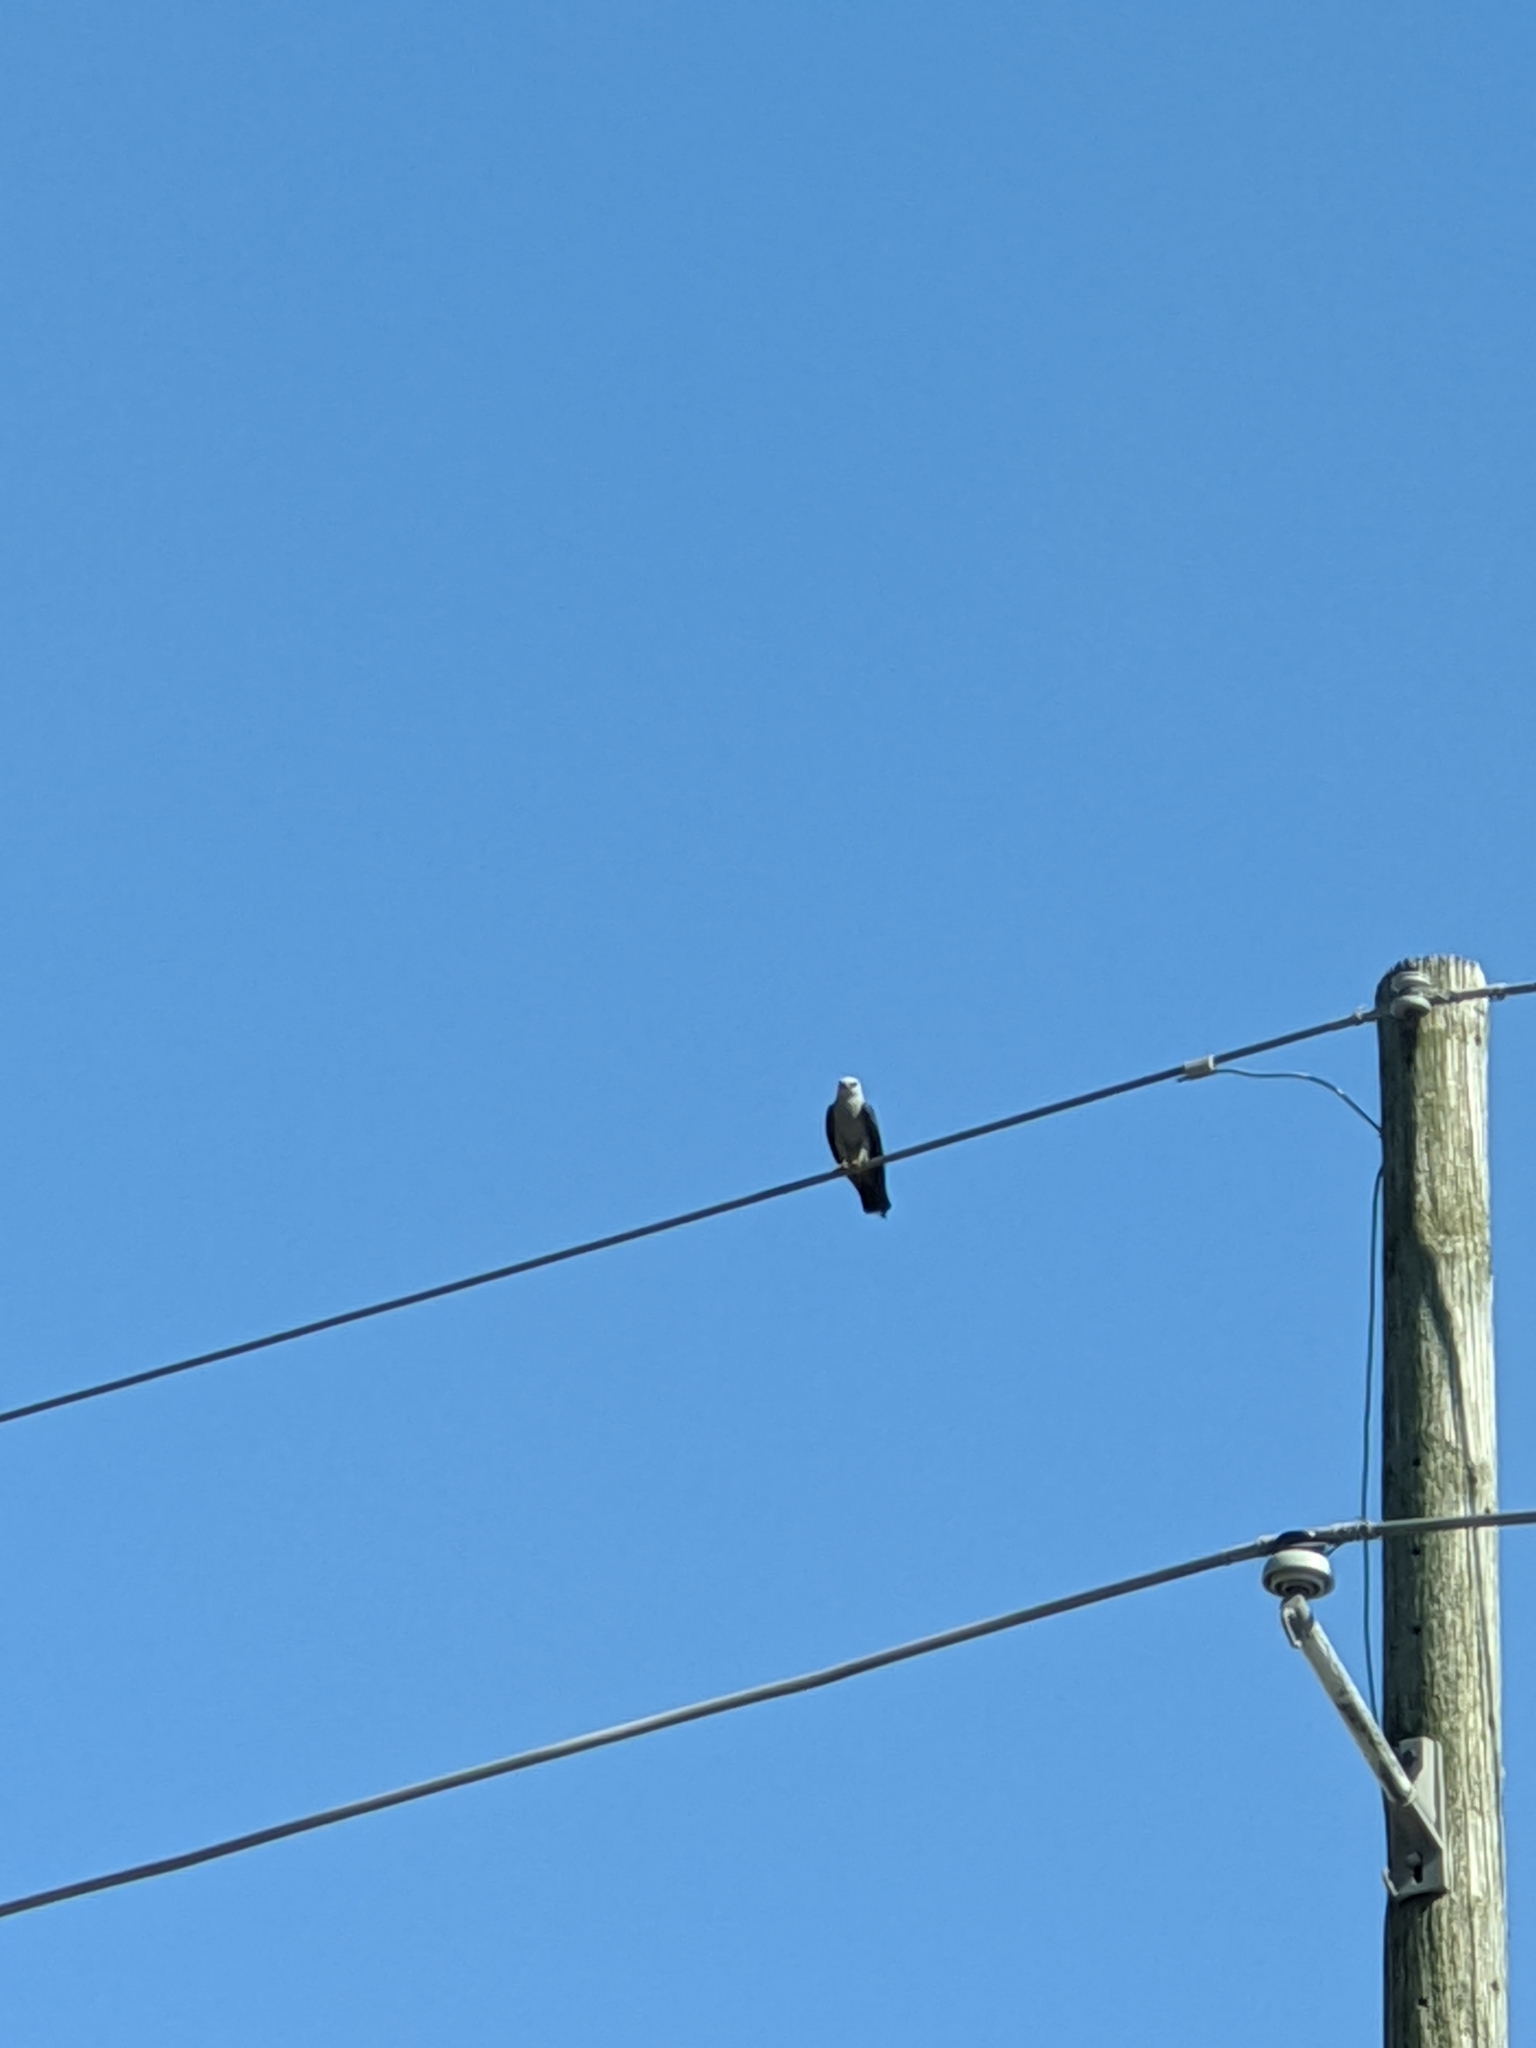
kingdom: Animalia
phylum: Chordata
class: Aves
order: Accipitriformes
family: Accipitridae
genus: Ictinia
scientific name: Ictinia mississippiensis
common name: Mississippi kite
